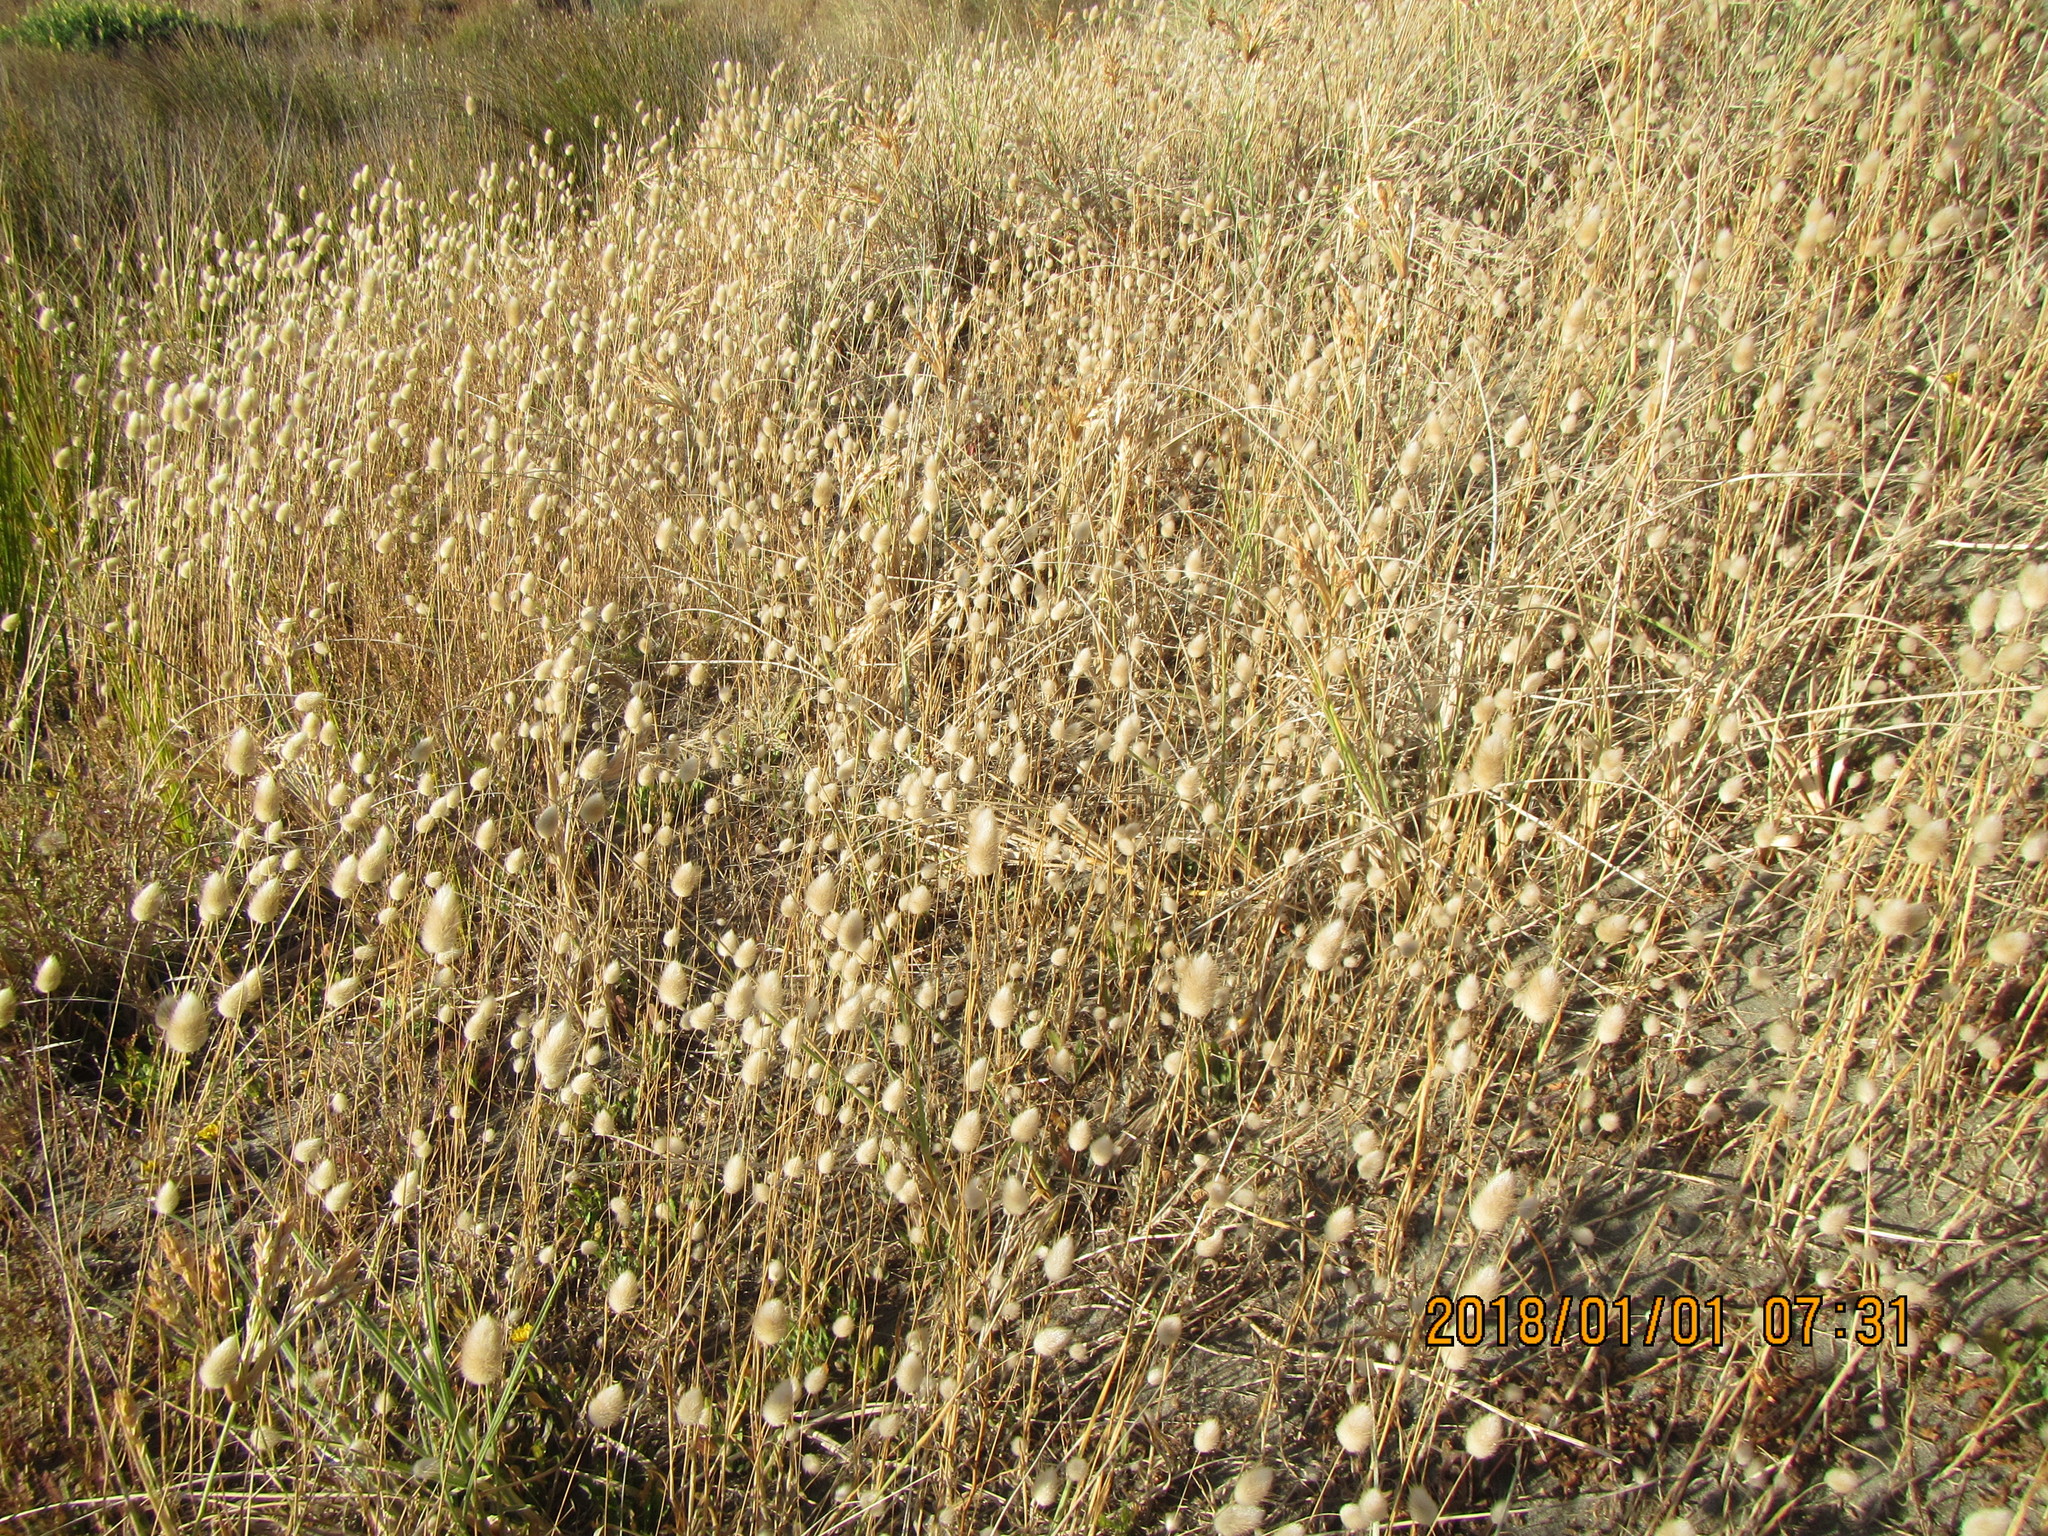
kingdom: Plantae
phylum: Tracheophyta
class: Liliopsida
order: Poales
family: Poaceae
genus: Lagurus
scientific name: Lagurus ovatus
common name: Hare's-tail
